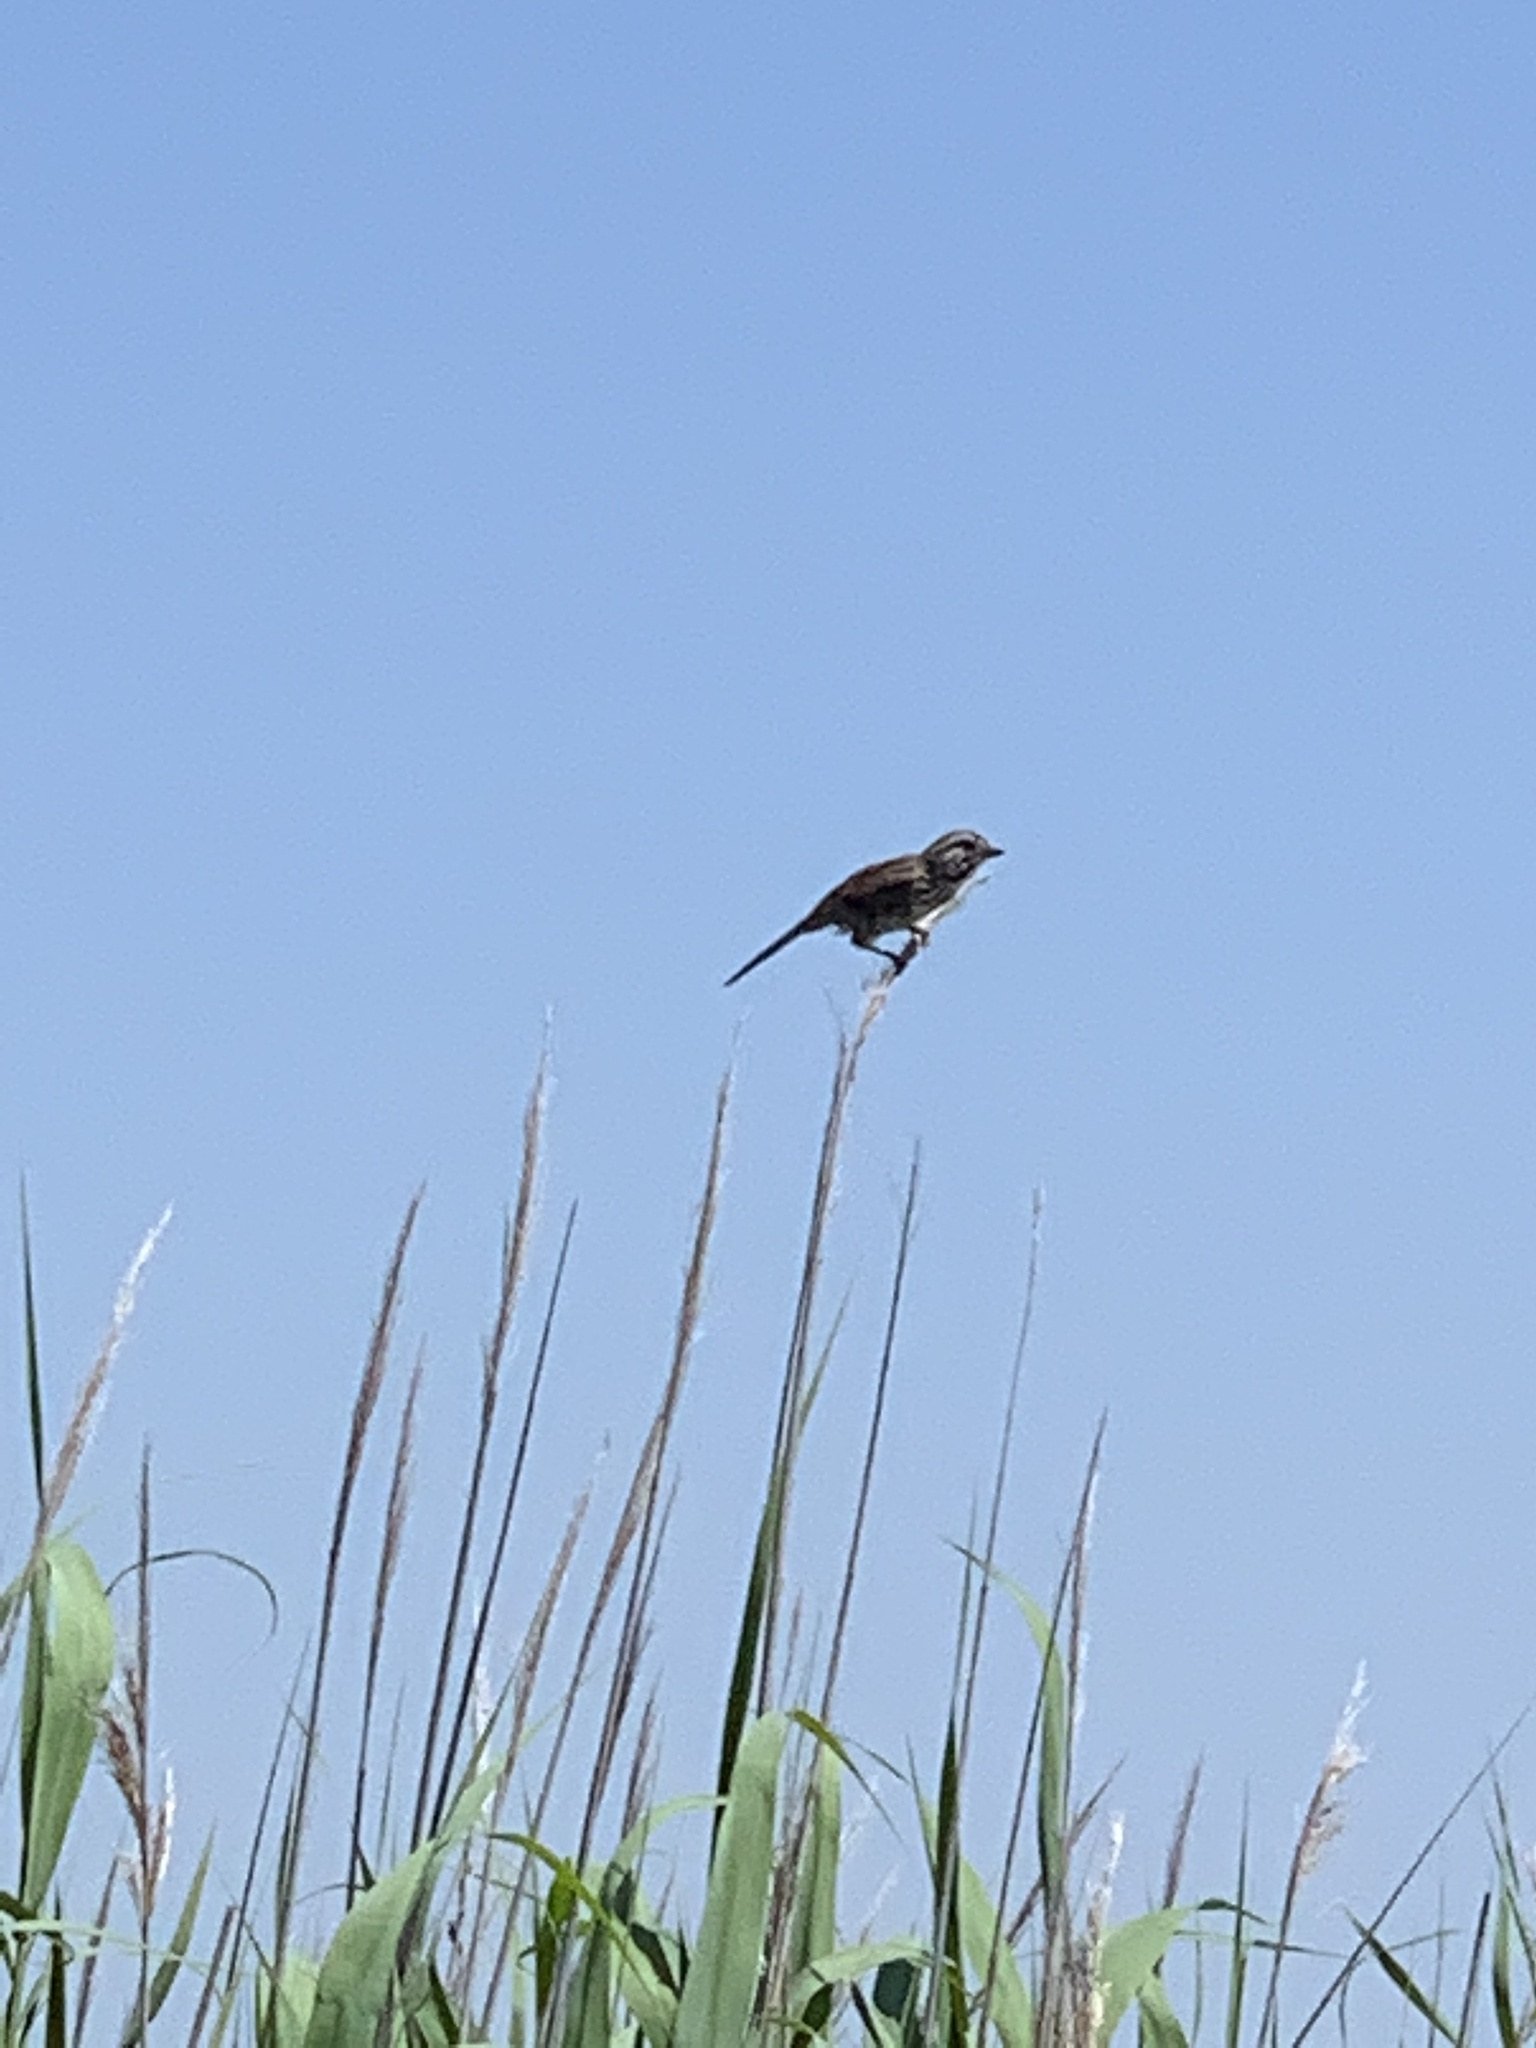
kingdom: Animalia
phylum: Chordata
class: Aves
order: Passeriformes
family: Passerellidae
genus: Melospiza
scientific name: Melospiza melodia
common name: Song sparrow
